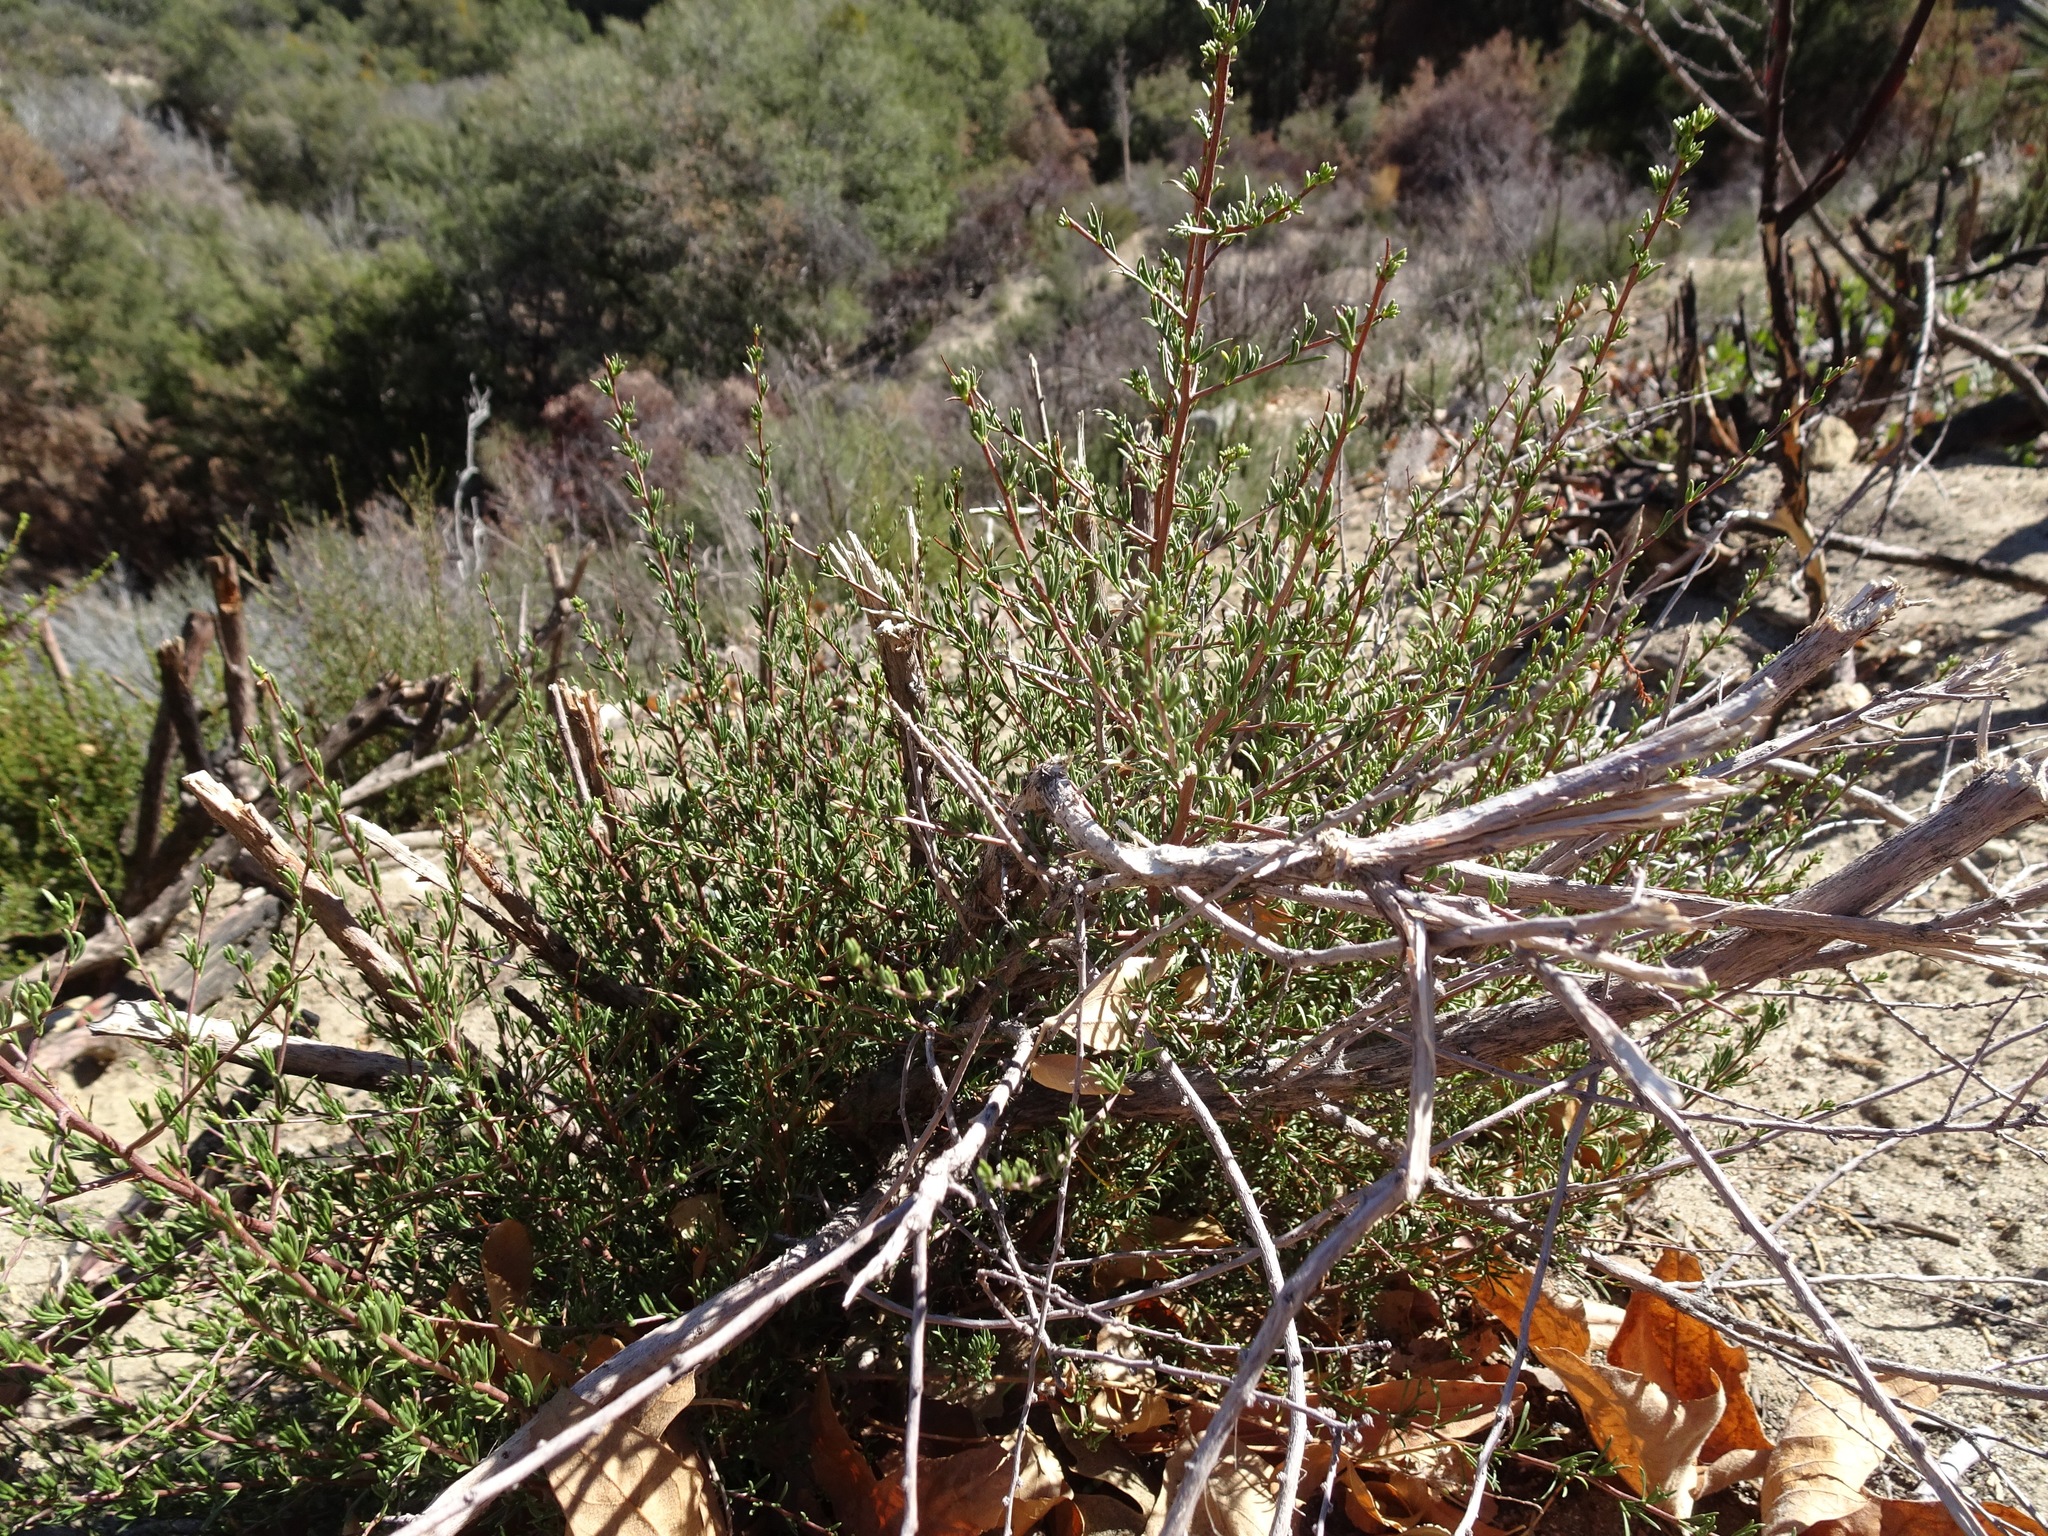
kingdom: Plantae
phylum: Tracheophyta
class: Magnoliopsida
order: Rosales
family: Rosaceae
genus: Adenostoma
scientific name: Adenostoma fasciculatum
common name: Chamise
